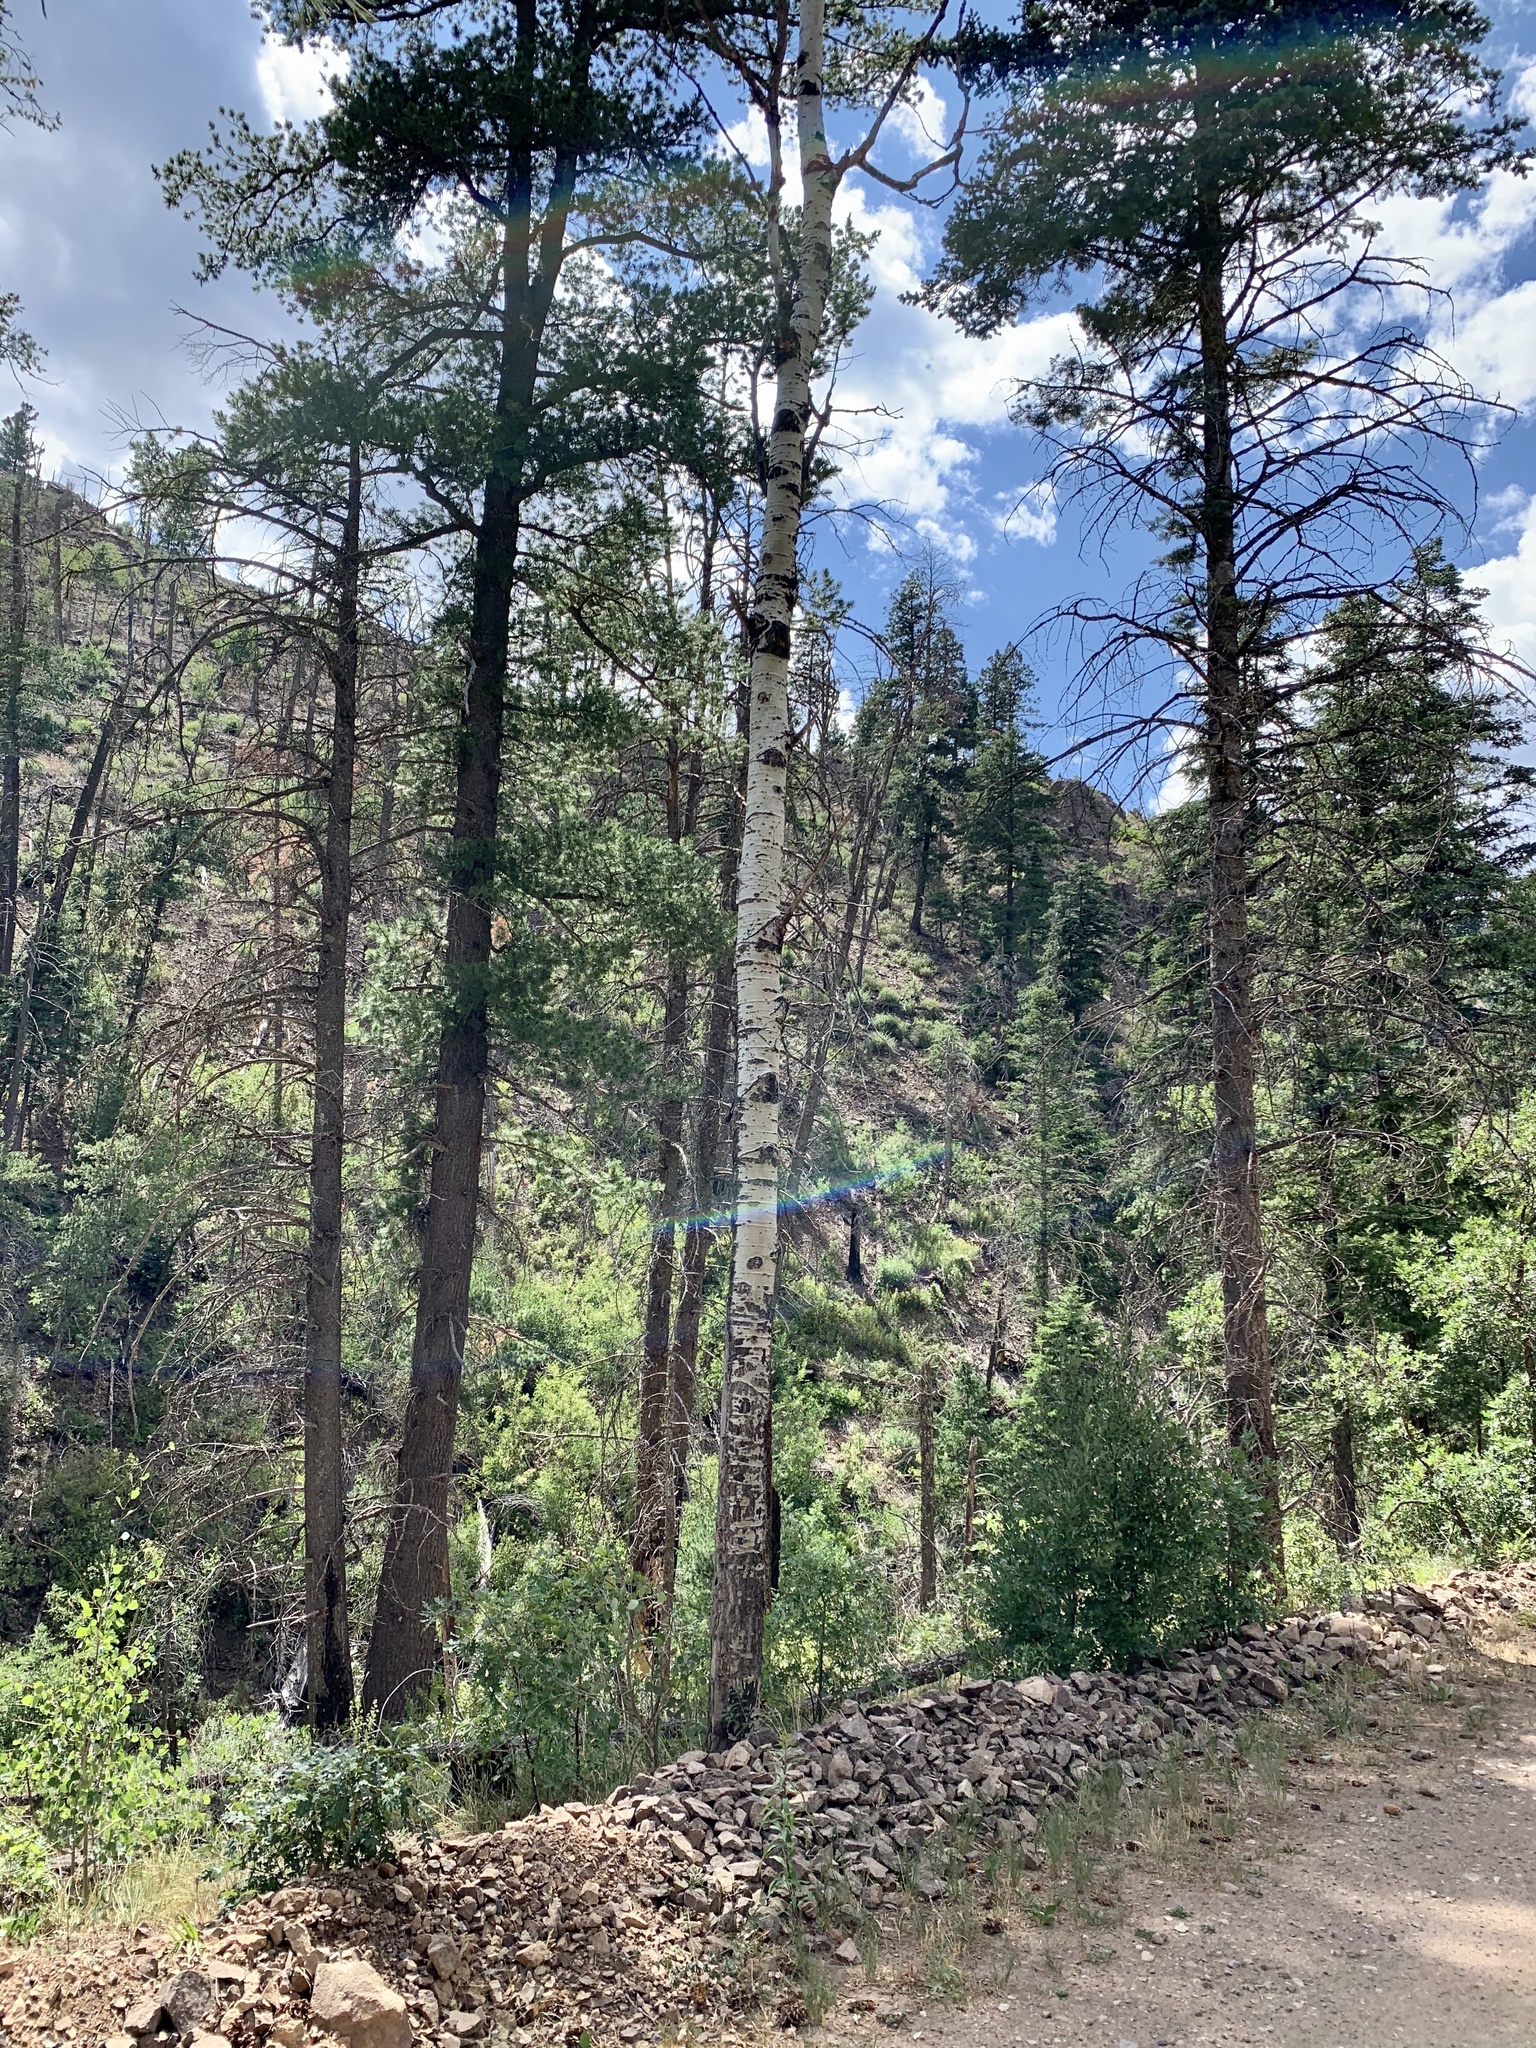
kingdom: Plantae
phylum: Tracheophyta
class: Magnoliopsida
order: Malpighiales
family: Salicaceae
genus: Populus
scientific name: Populus tremuloides
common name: Quaking aspen
